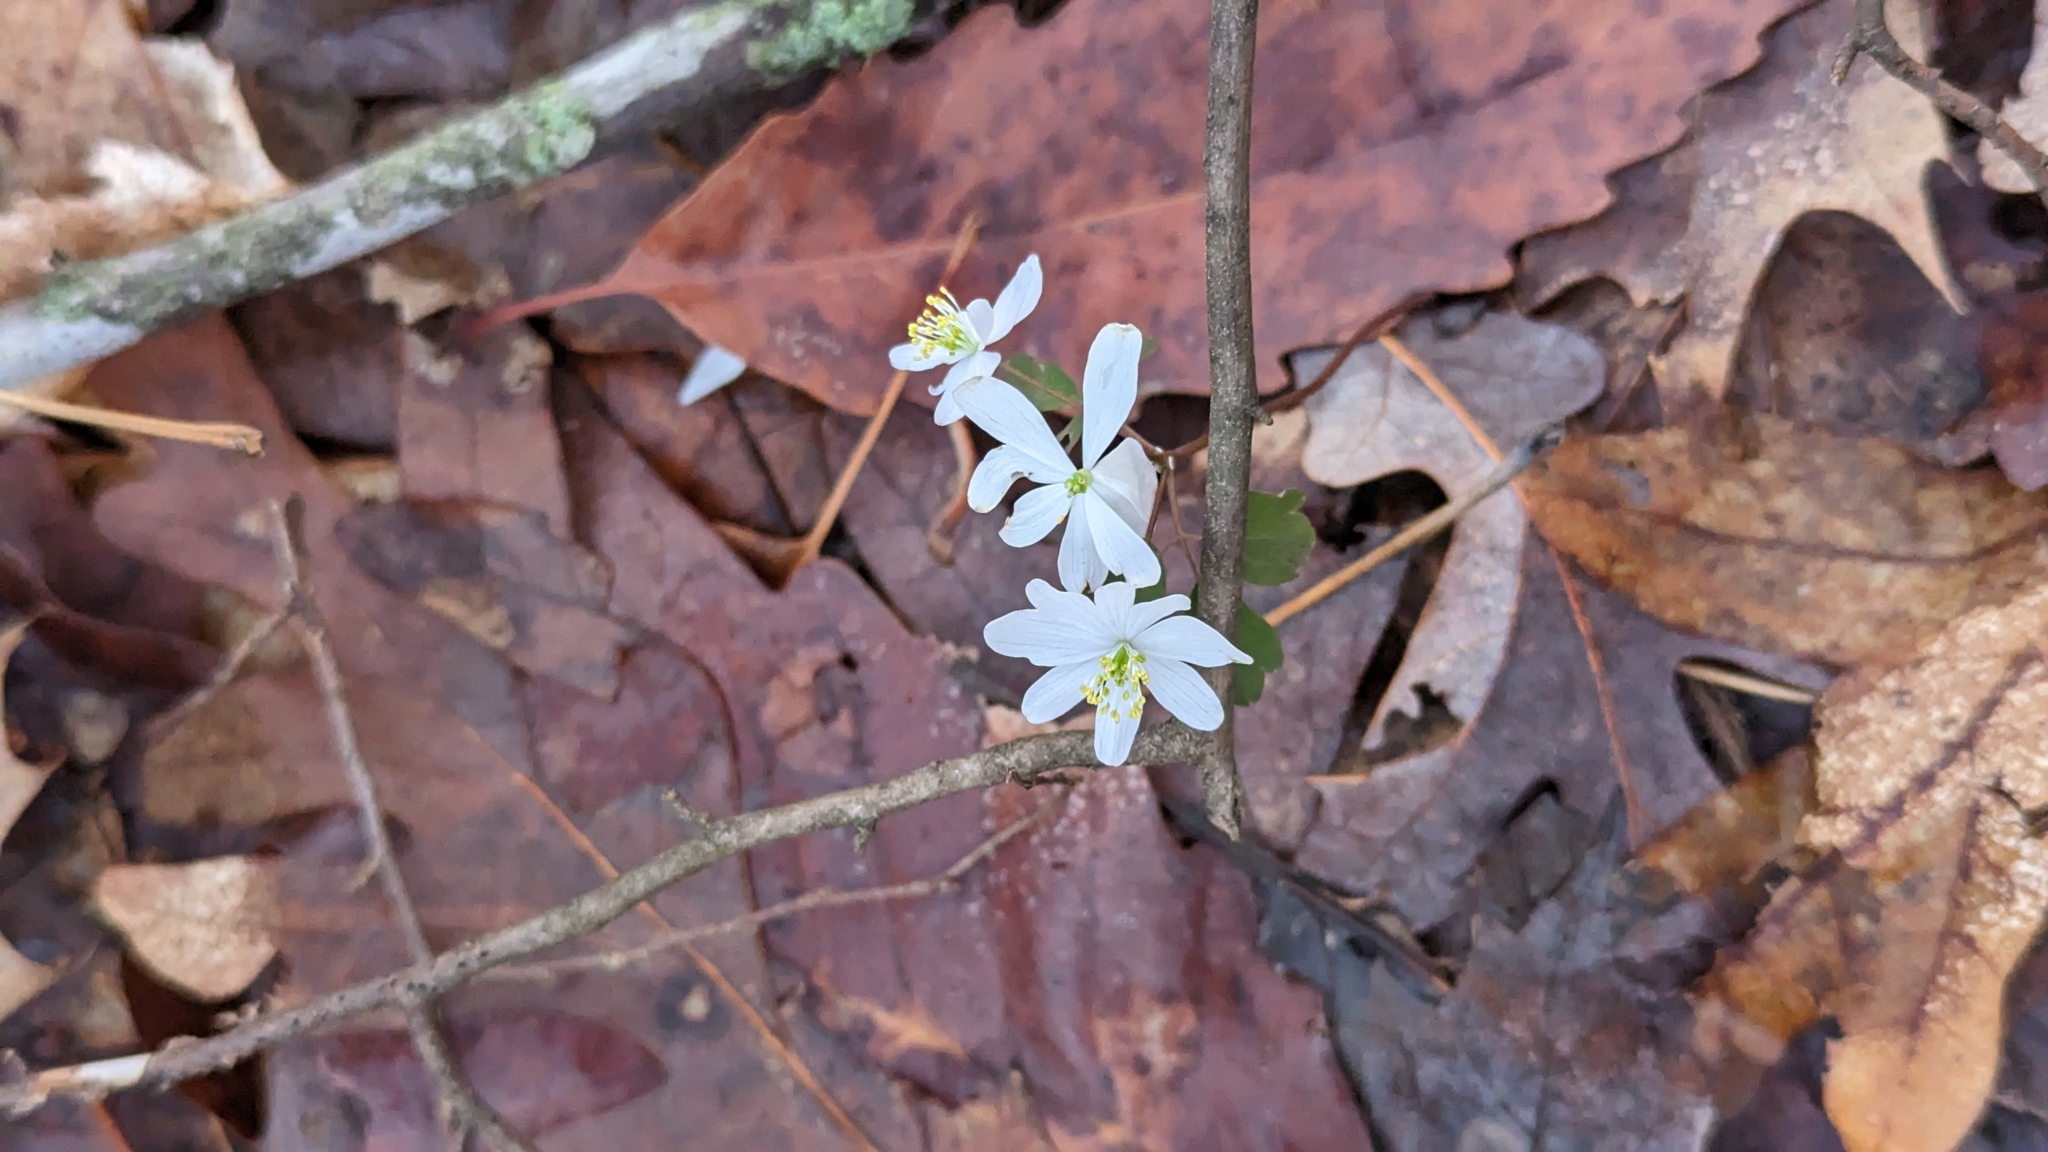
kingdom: Plantae
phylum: Tracheophyta
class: Magnoliopsida
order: Ranunculales
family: Ranunculaceae
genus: Thalictrum
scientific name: Thalictrum thalictroides
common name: Rue-anemone
